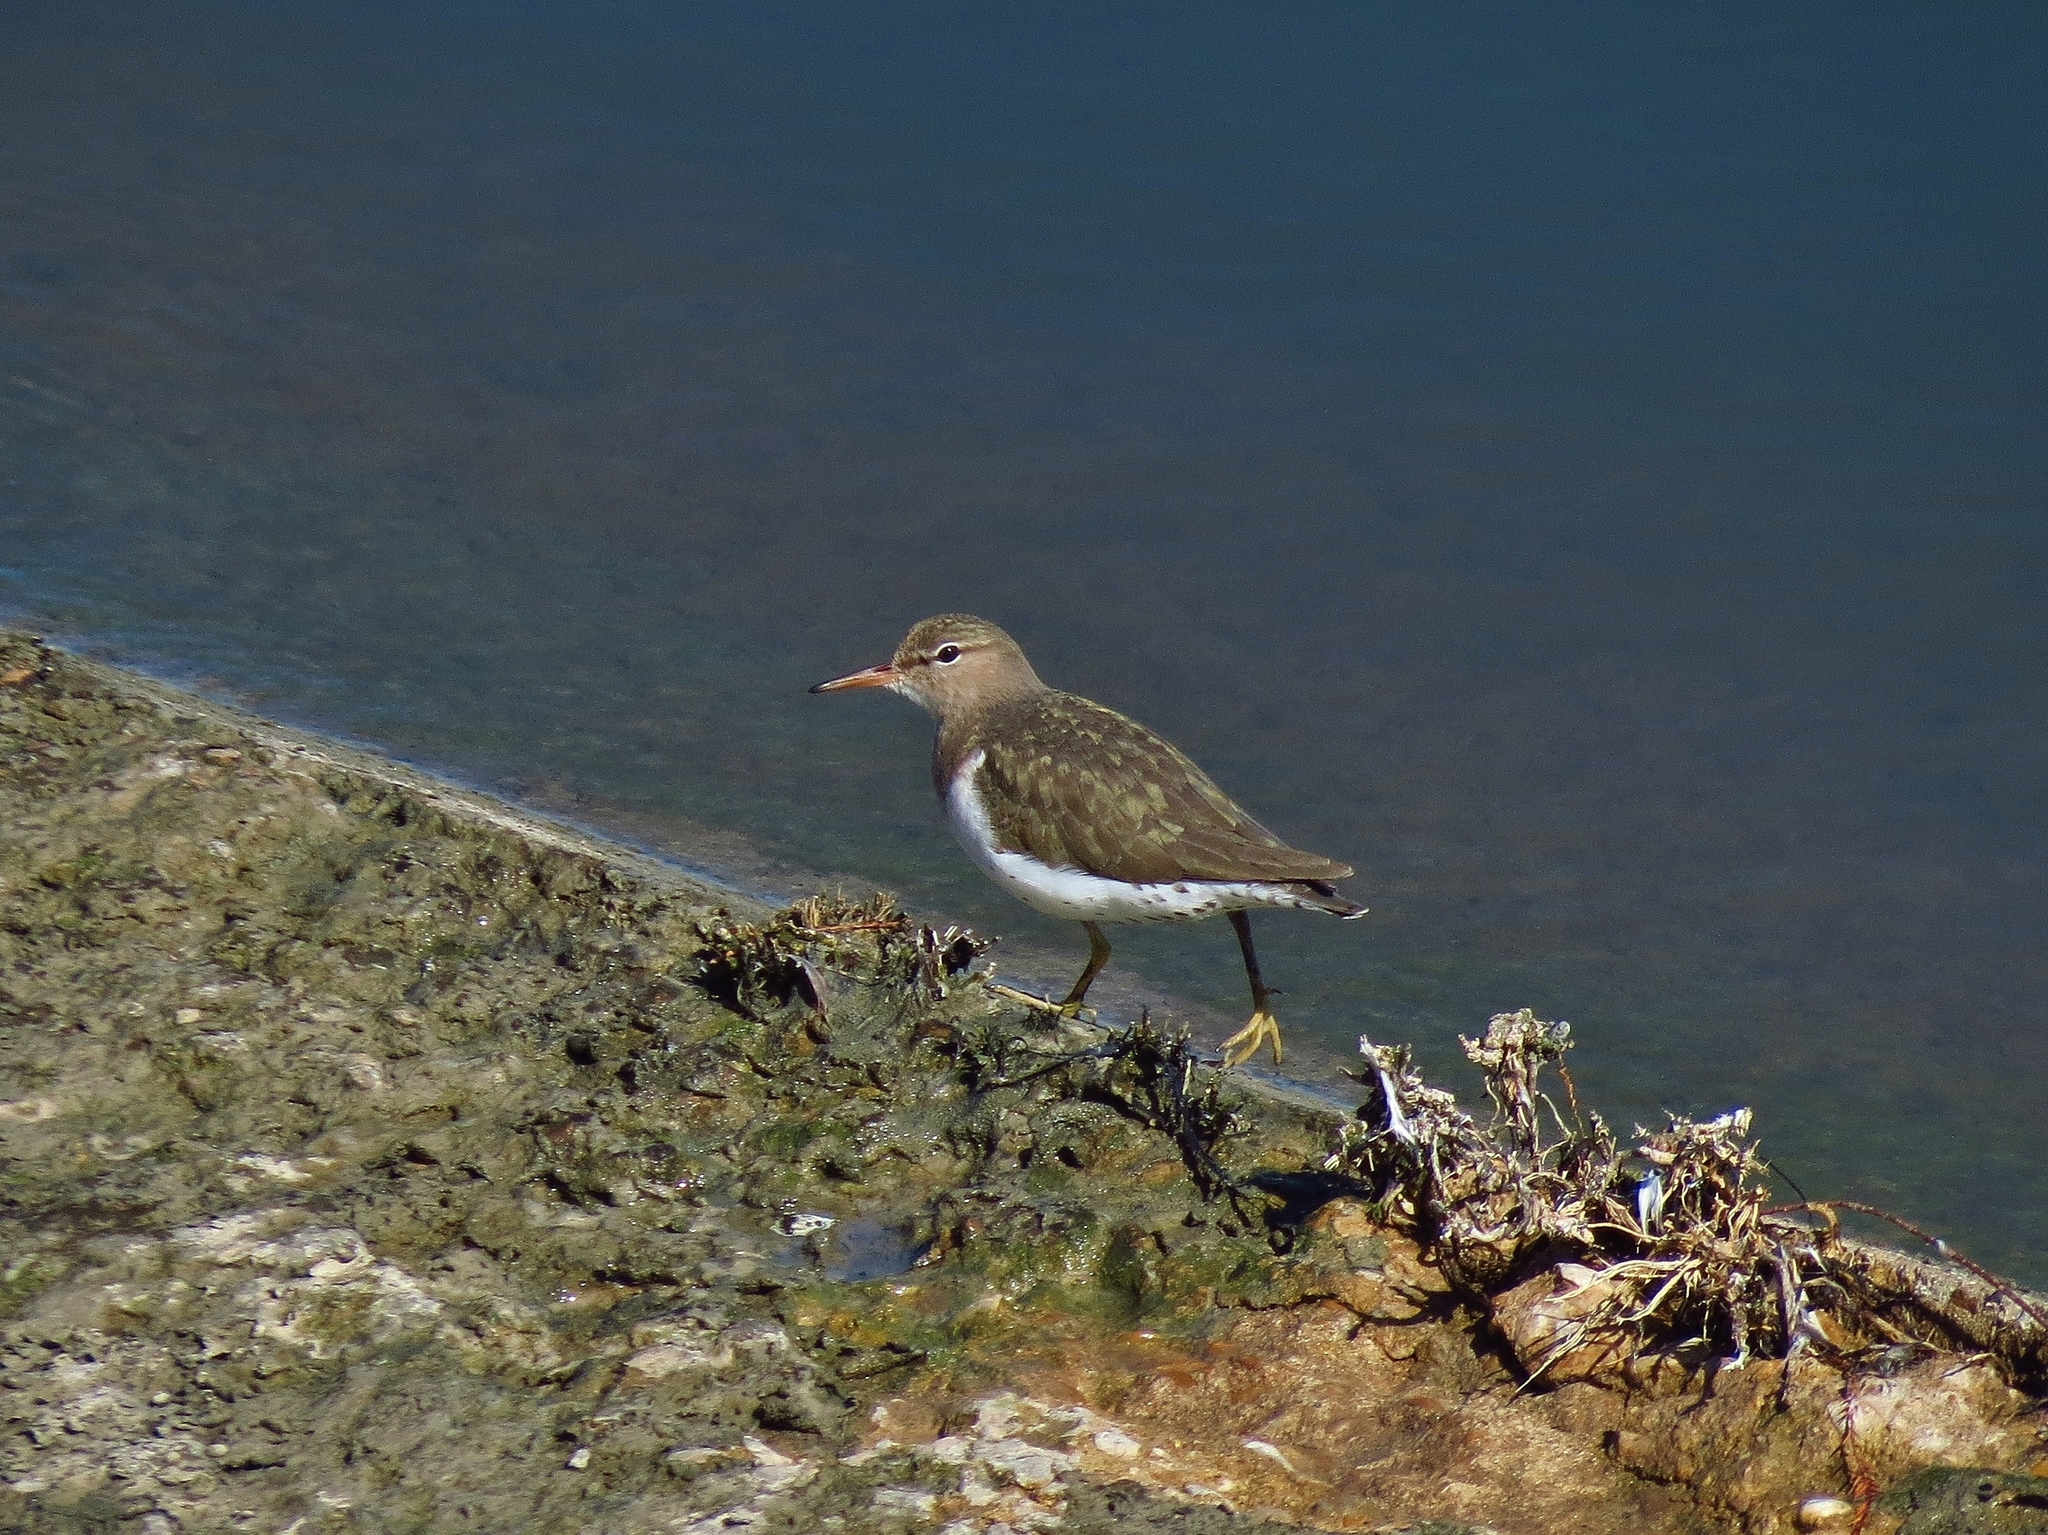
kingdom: Animalia
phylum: Chordata
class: Aves
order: Charadriiformes
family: Scolopacidae
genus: Actitis
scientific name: Actitis macularius
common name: Spotted sandpiper
